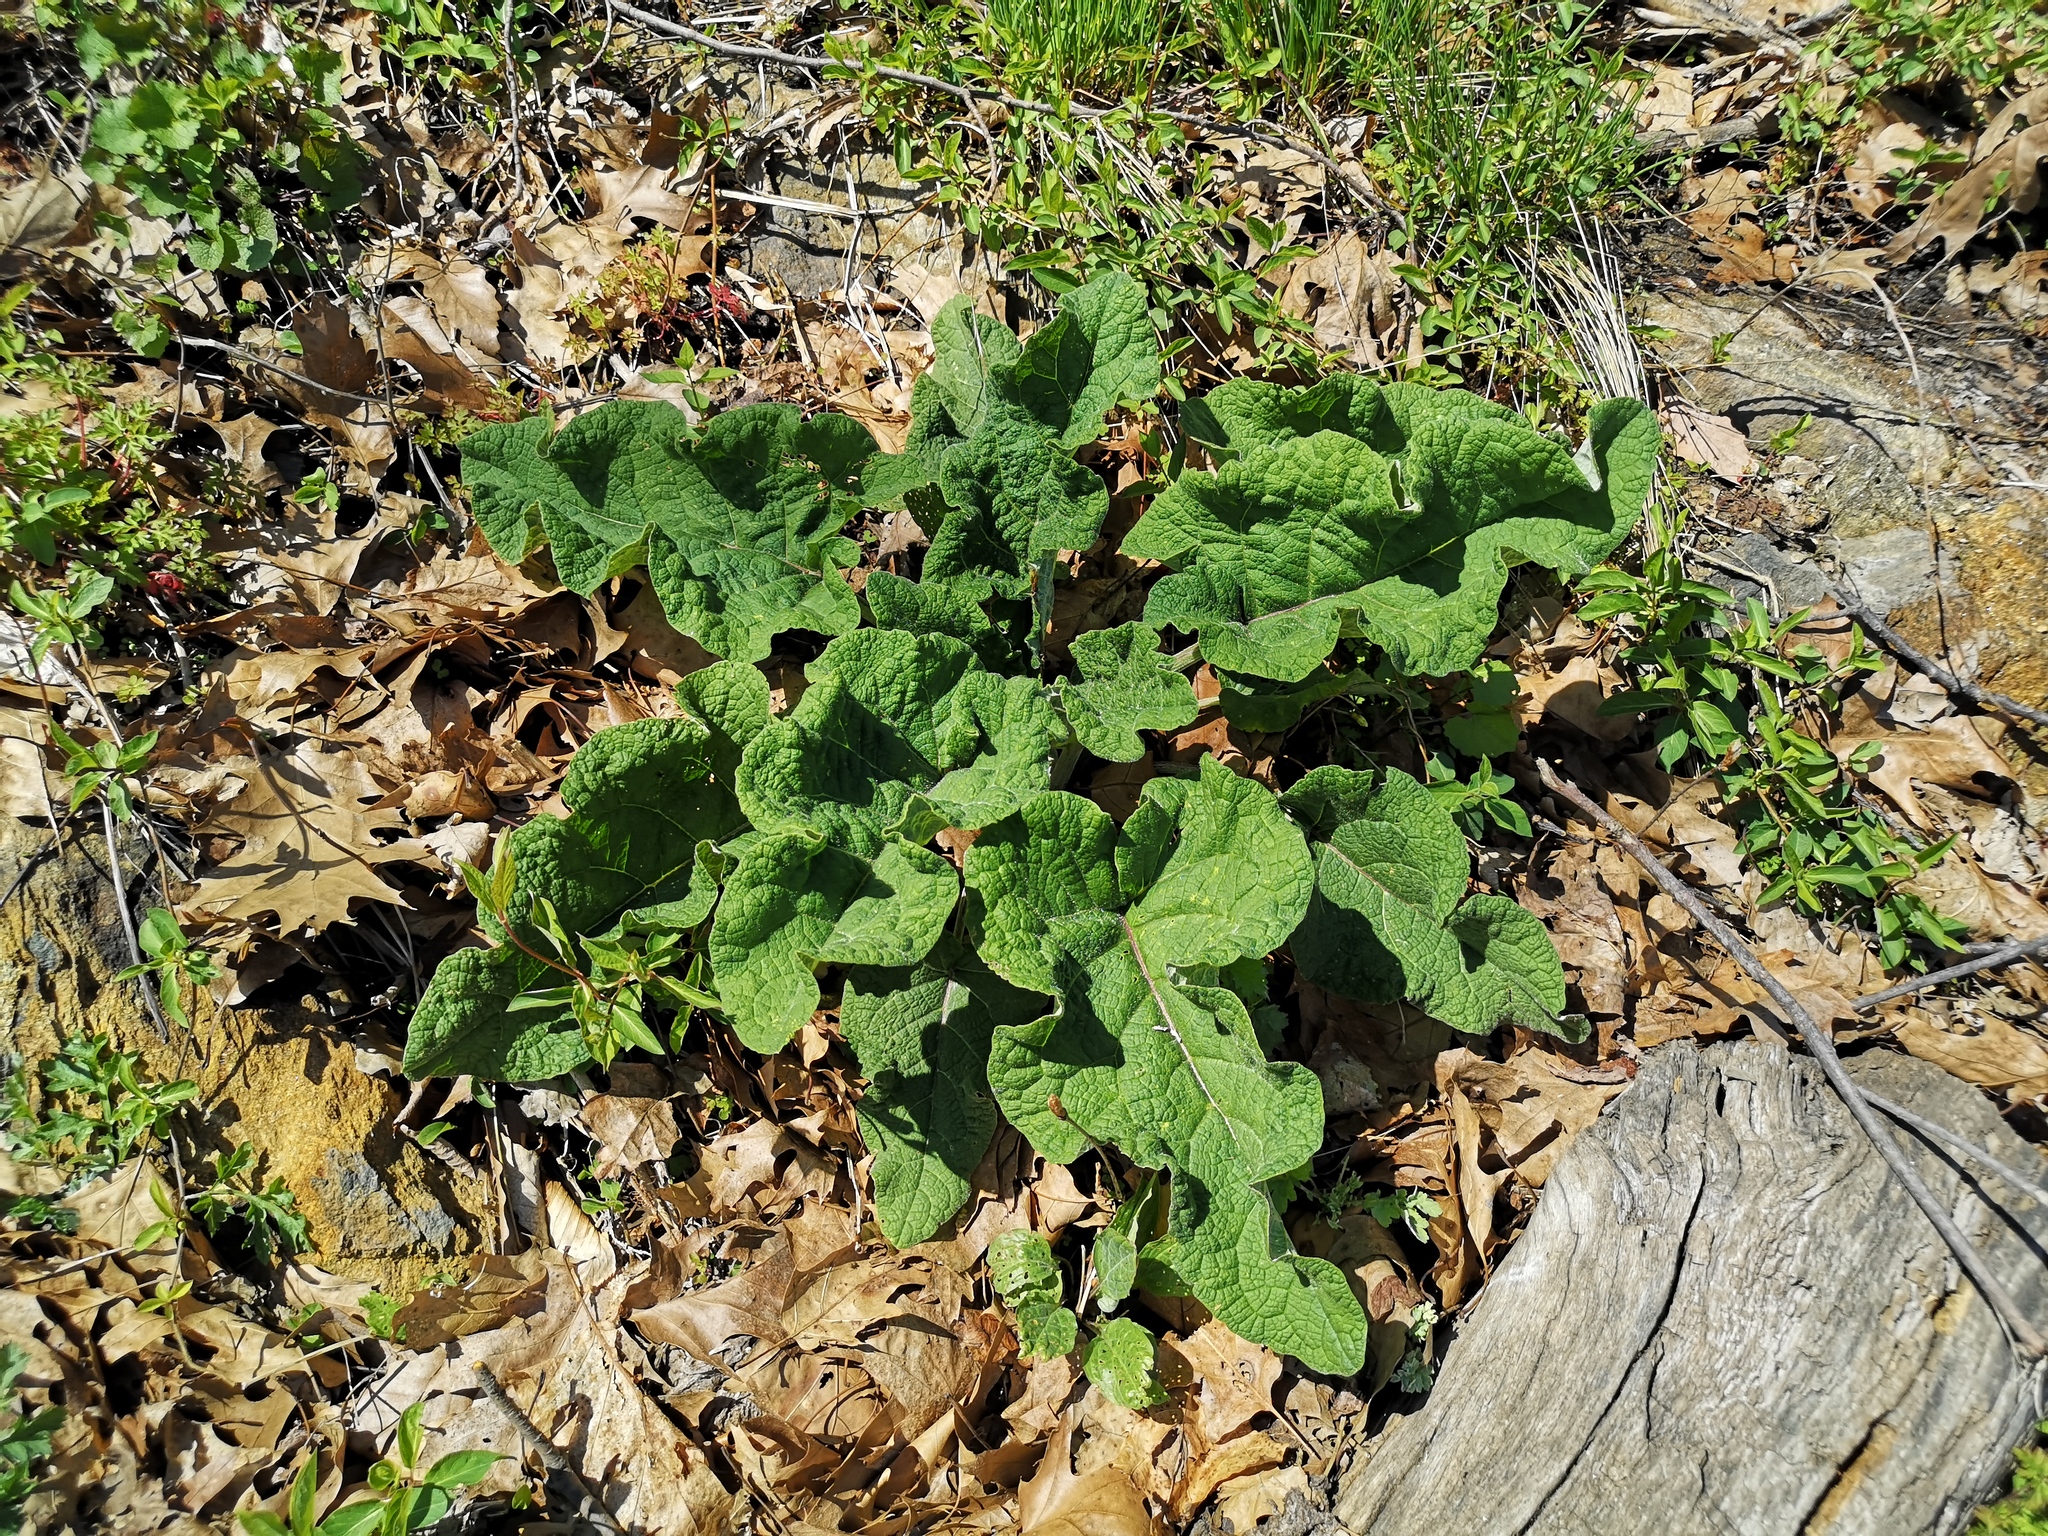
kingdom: Plantae
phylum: Tracheophyta
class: Magnoliopsida
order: Asterales
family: Asteraceae
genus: Arctium
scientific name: Arctium
